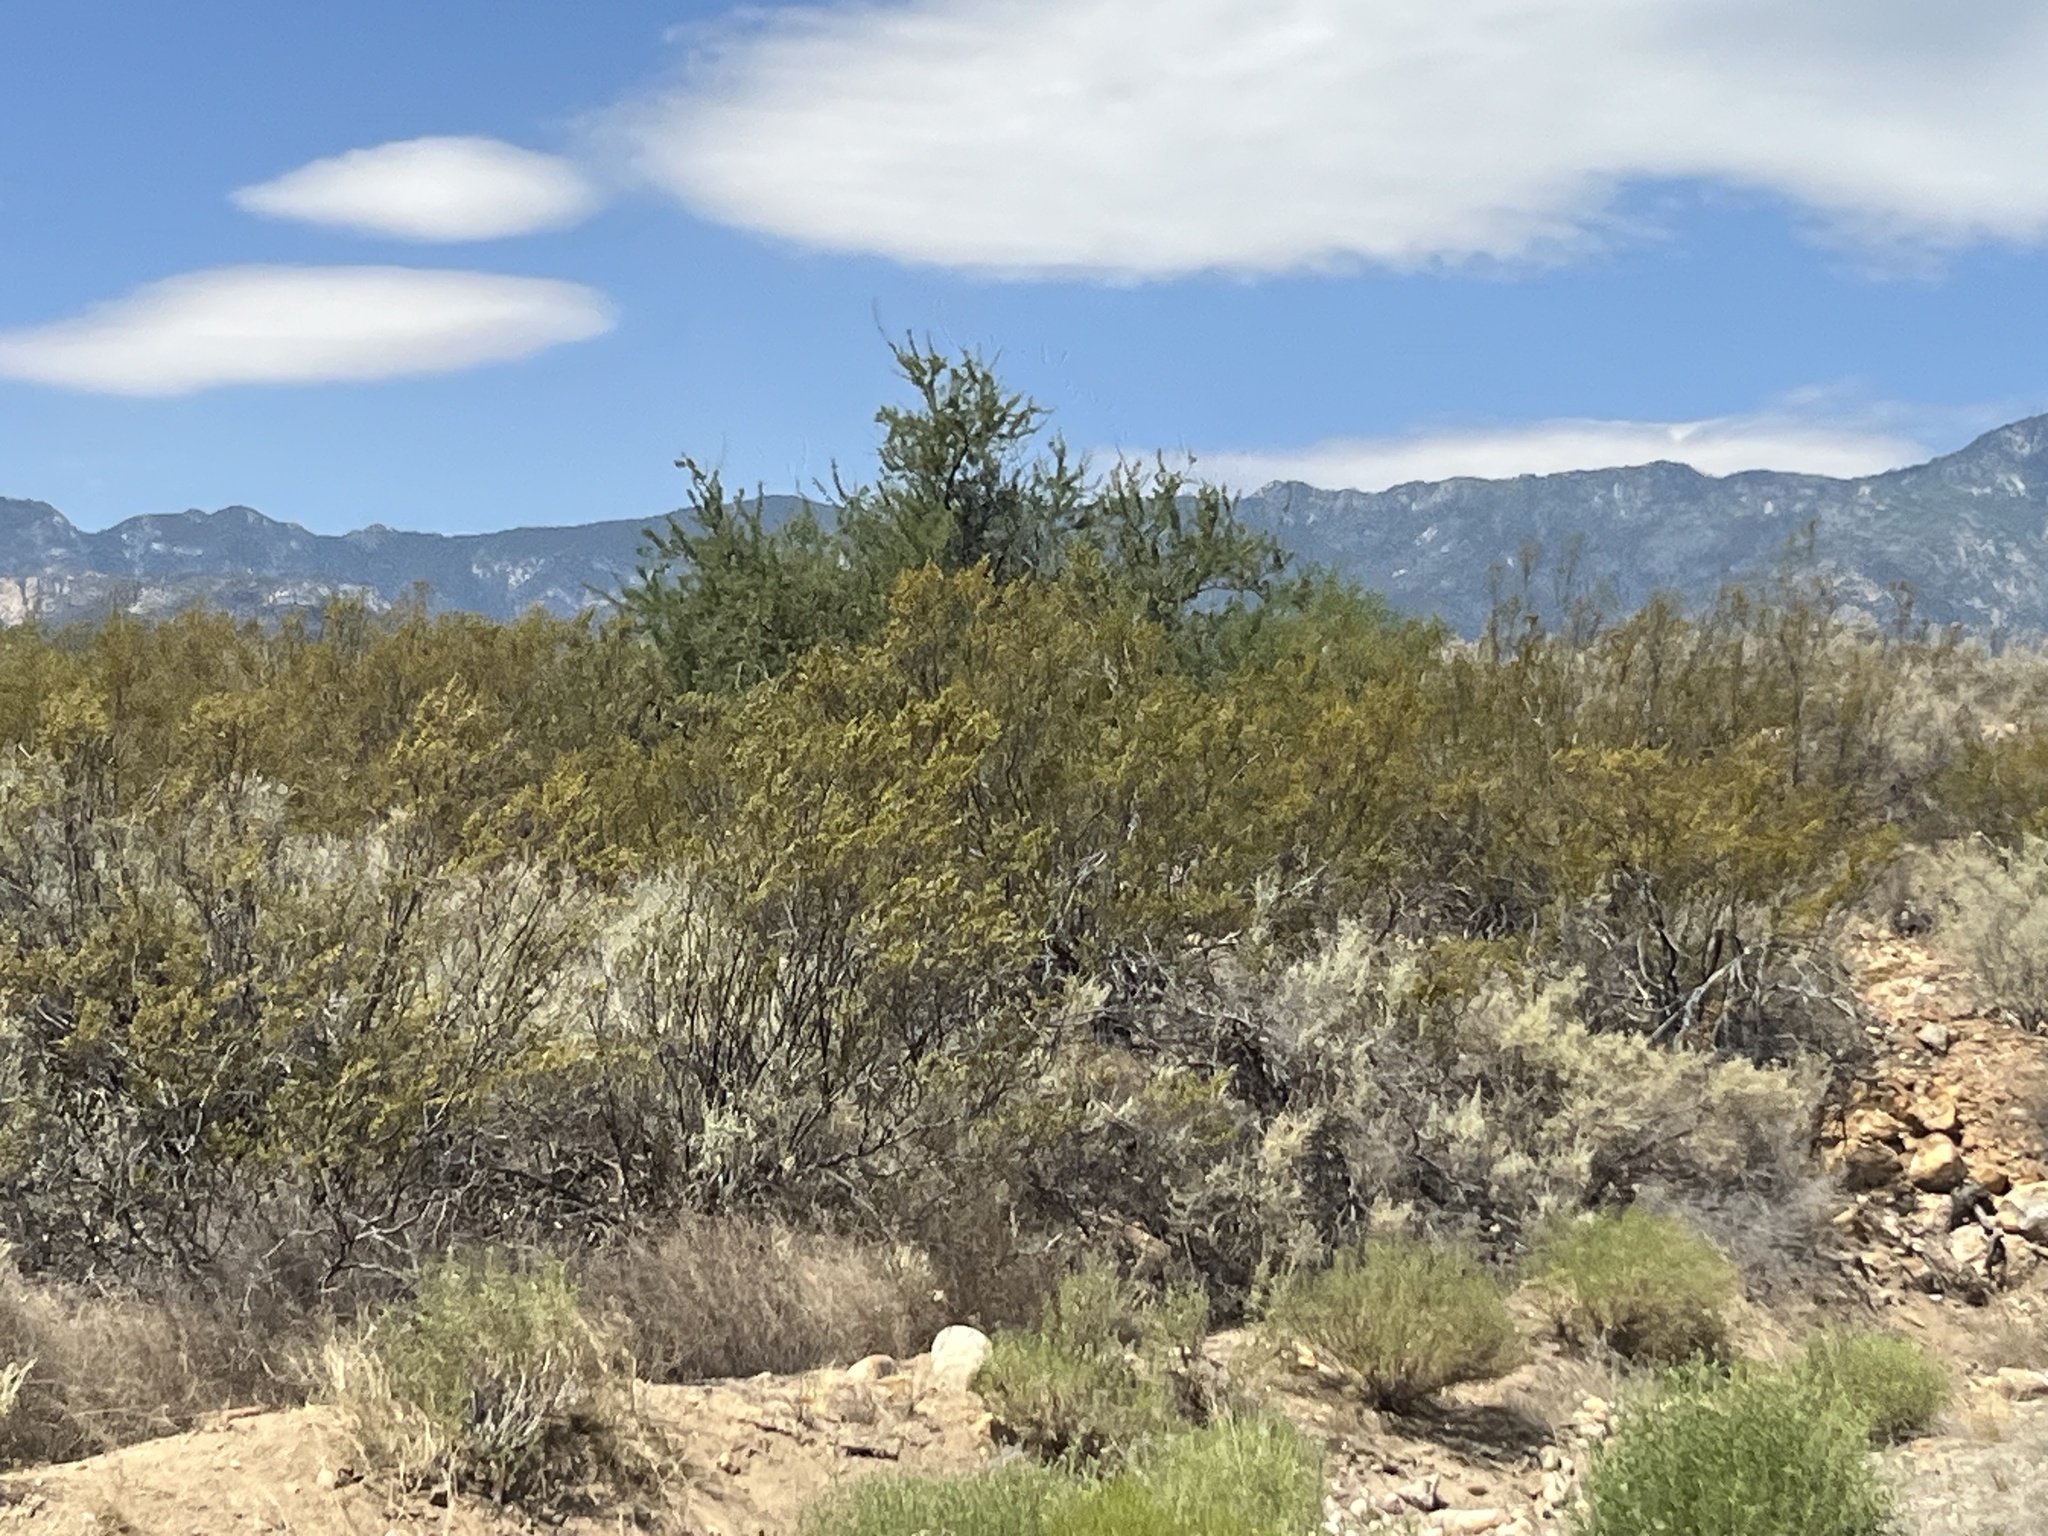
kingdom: Plantae
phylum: Tracheophyta
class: Magnoliopsida
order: Zygophyllales
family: Zygophyllaceae
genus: Larrea
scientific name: Larrea tridentata
